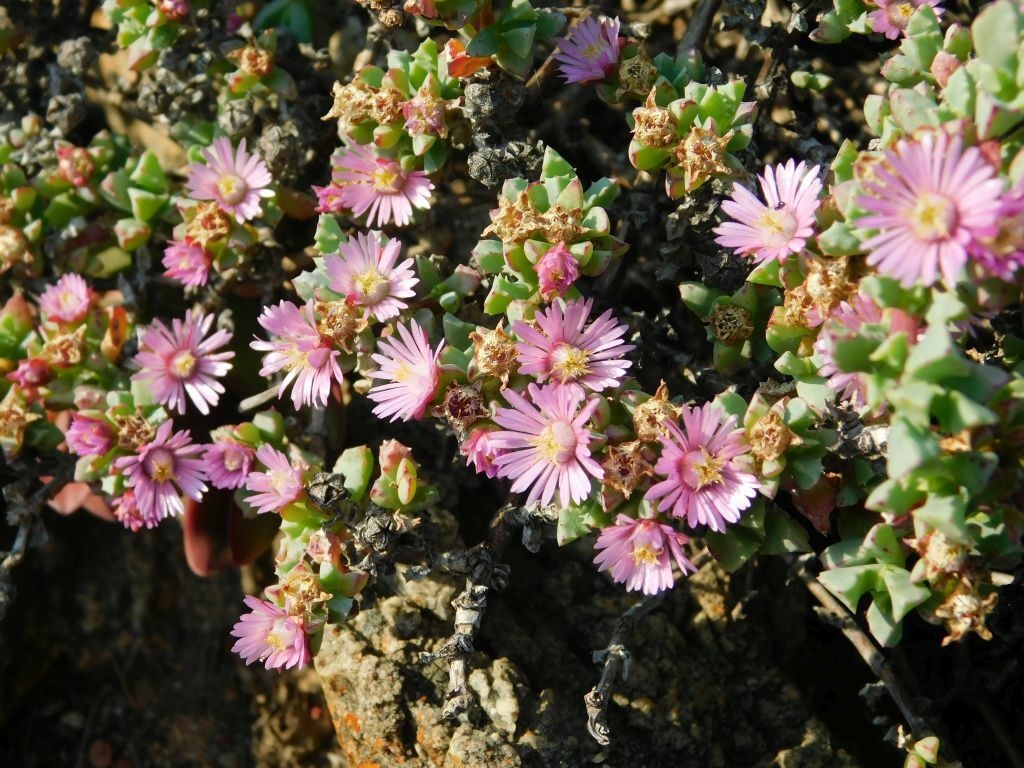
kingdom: Plantae
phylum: Tracheophyta
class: Magnoliopsida
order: Caryophyllales
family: Aizoaceae
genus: Oscularia
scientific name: Oscularia deltoides
